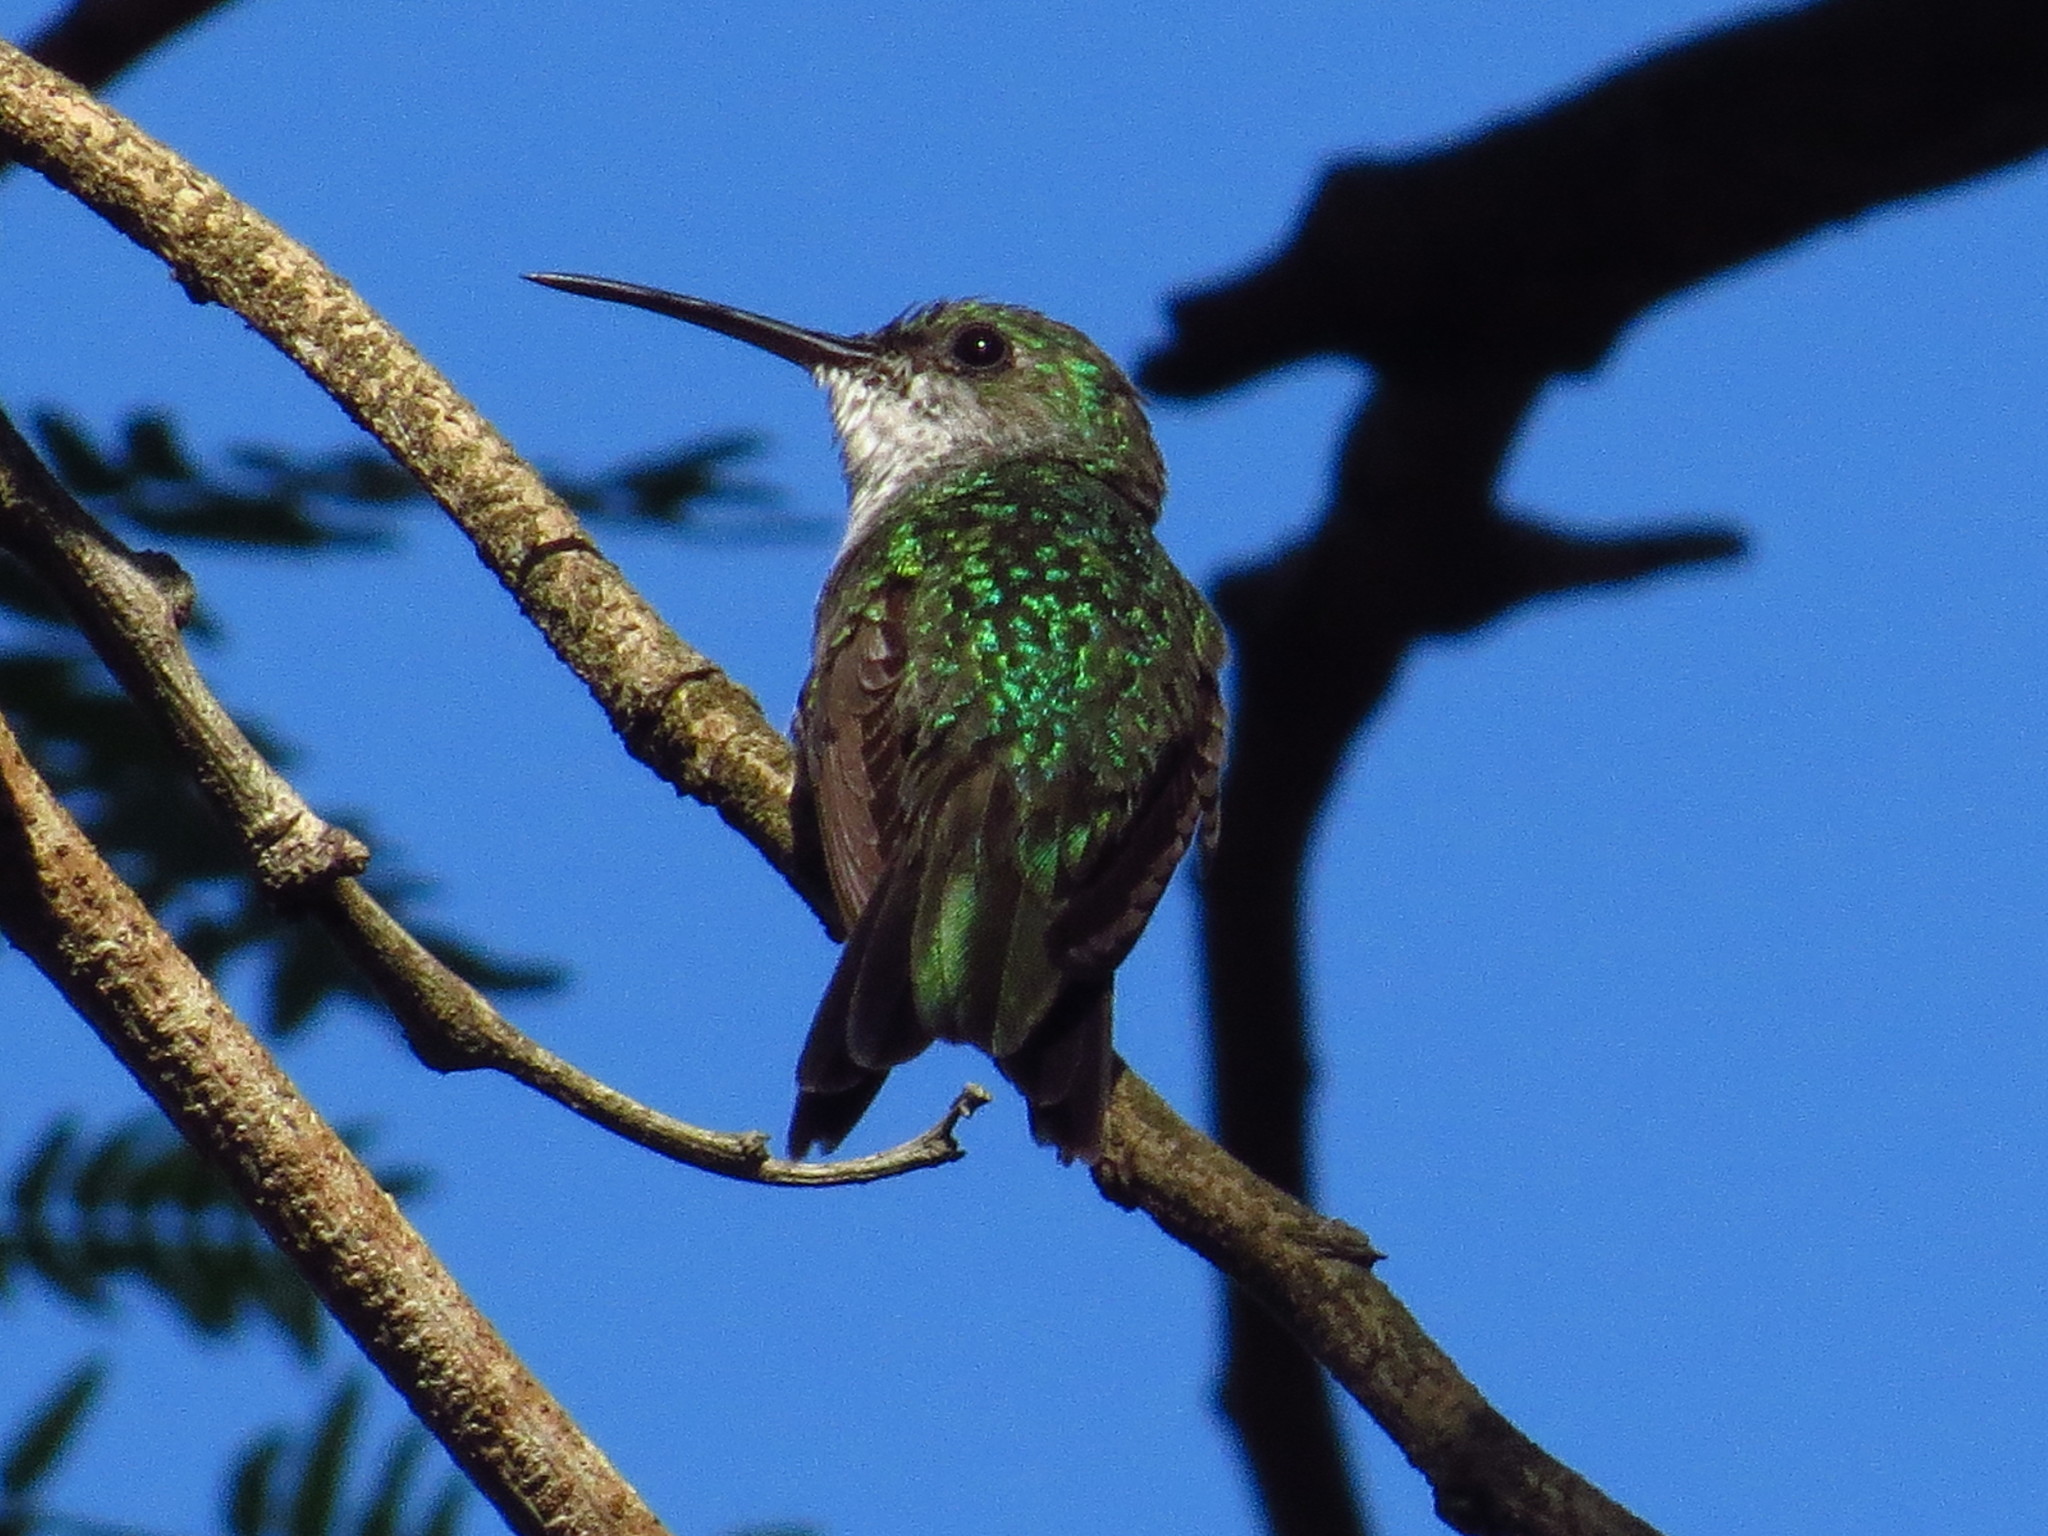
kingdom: Animalia
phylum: Chordata
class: Aves
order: Apodiformes
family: Trochilidae
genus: Chrysuronia
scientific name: Chrysuronia coeruleogularis
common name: Sapphire-throated hummingbird
